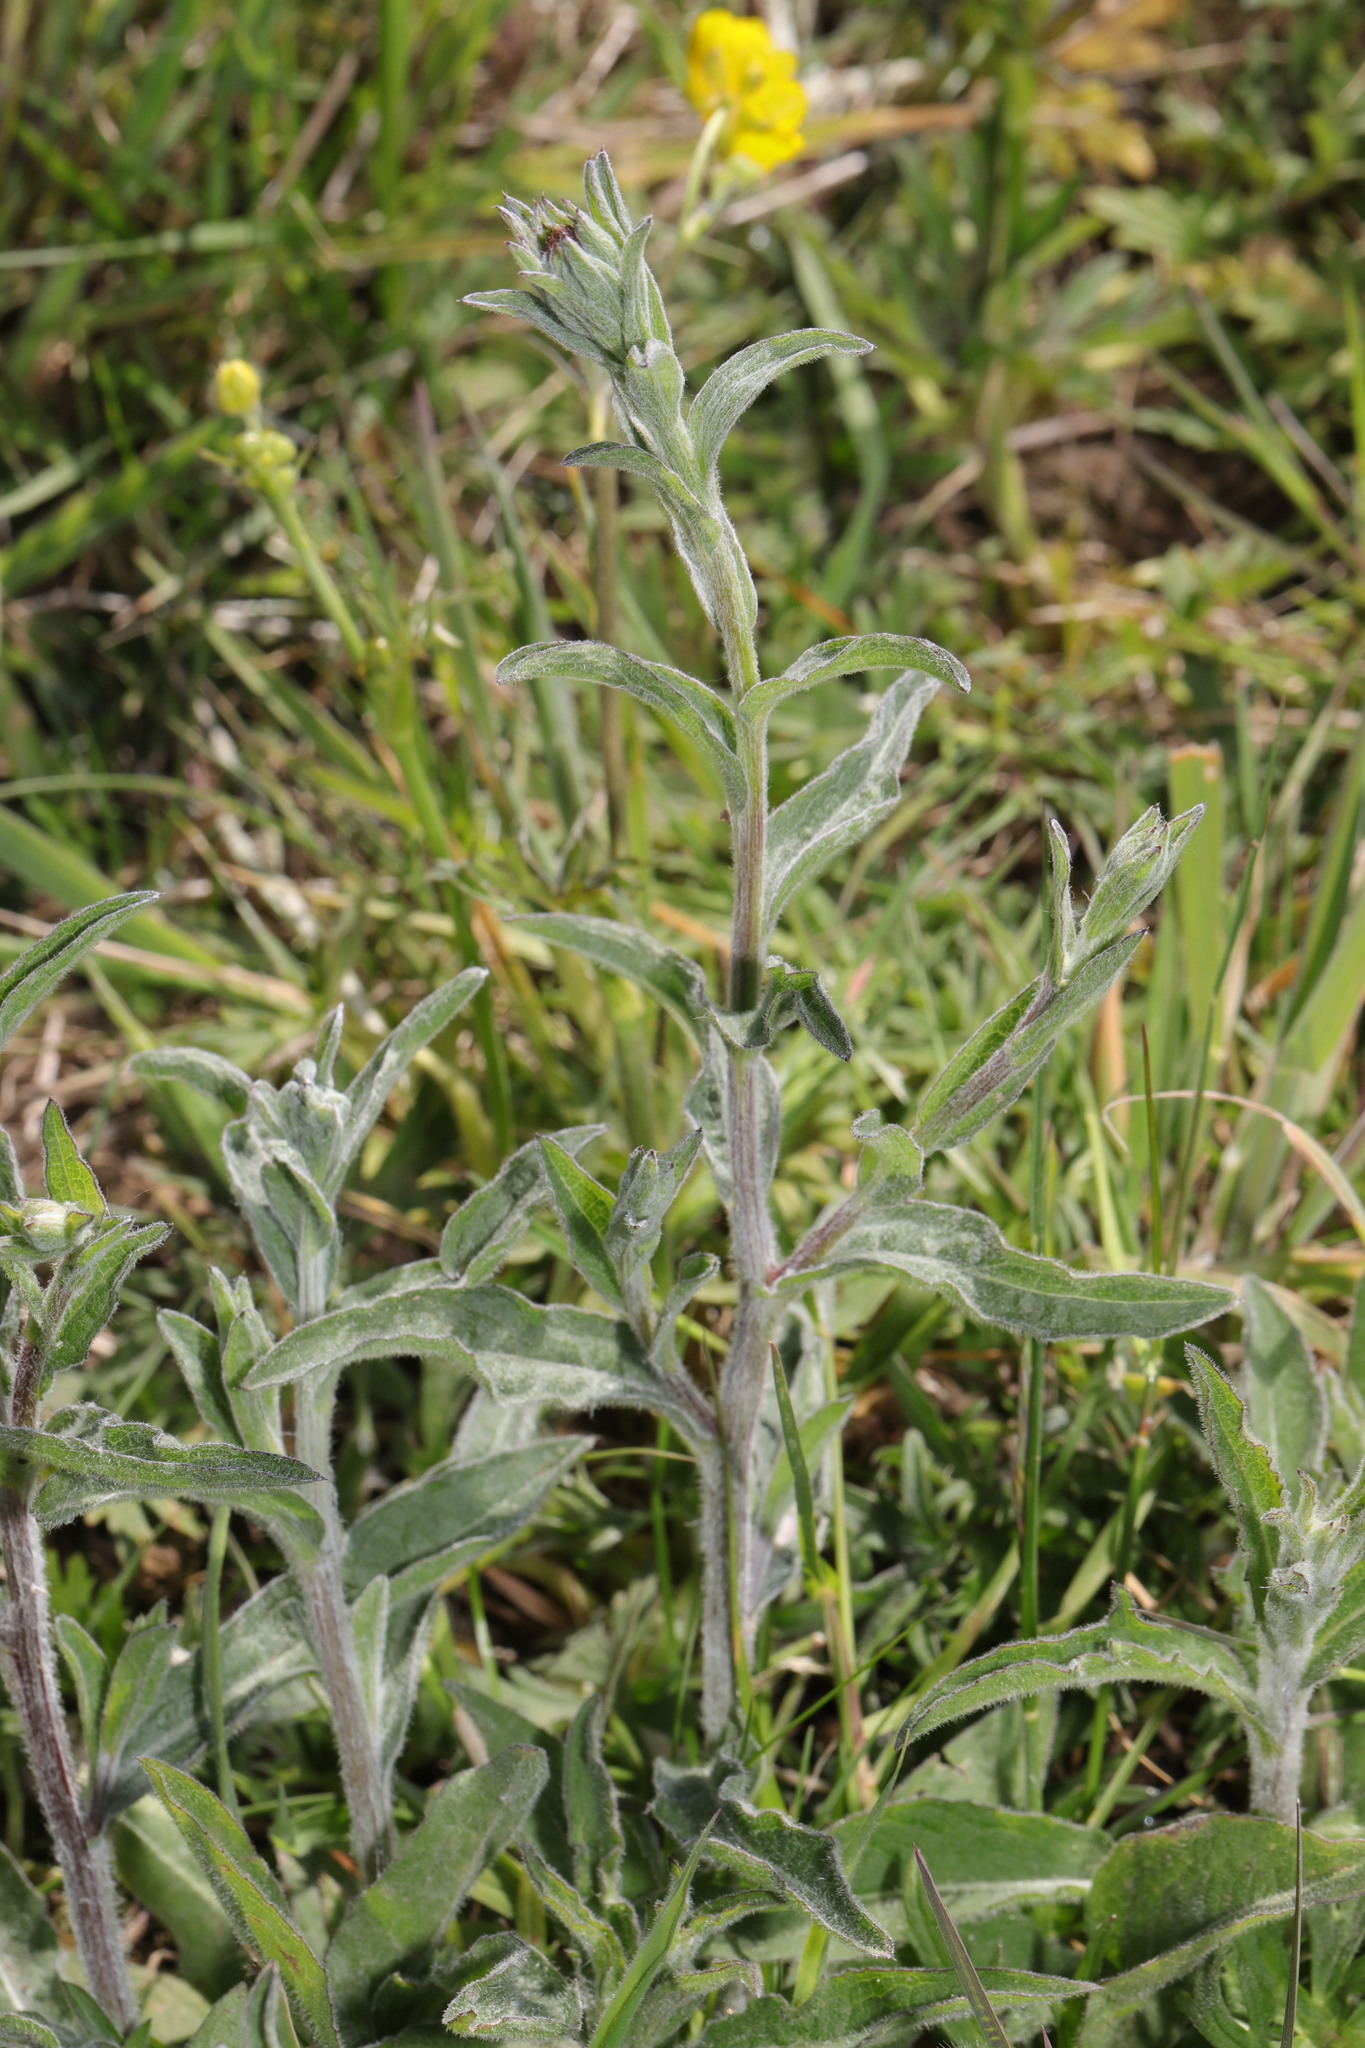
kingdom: Plantae
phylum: Tracheophyta
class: Magnoliopsida
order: Asterales
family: Asteraceae
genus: Centaurea
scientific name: Centaurea nigra
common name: Lesser knapweed
